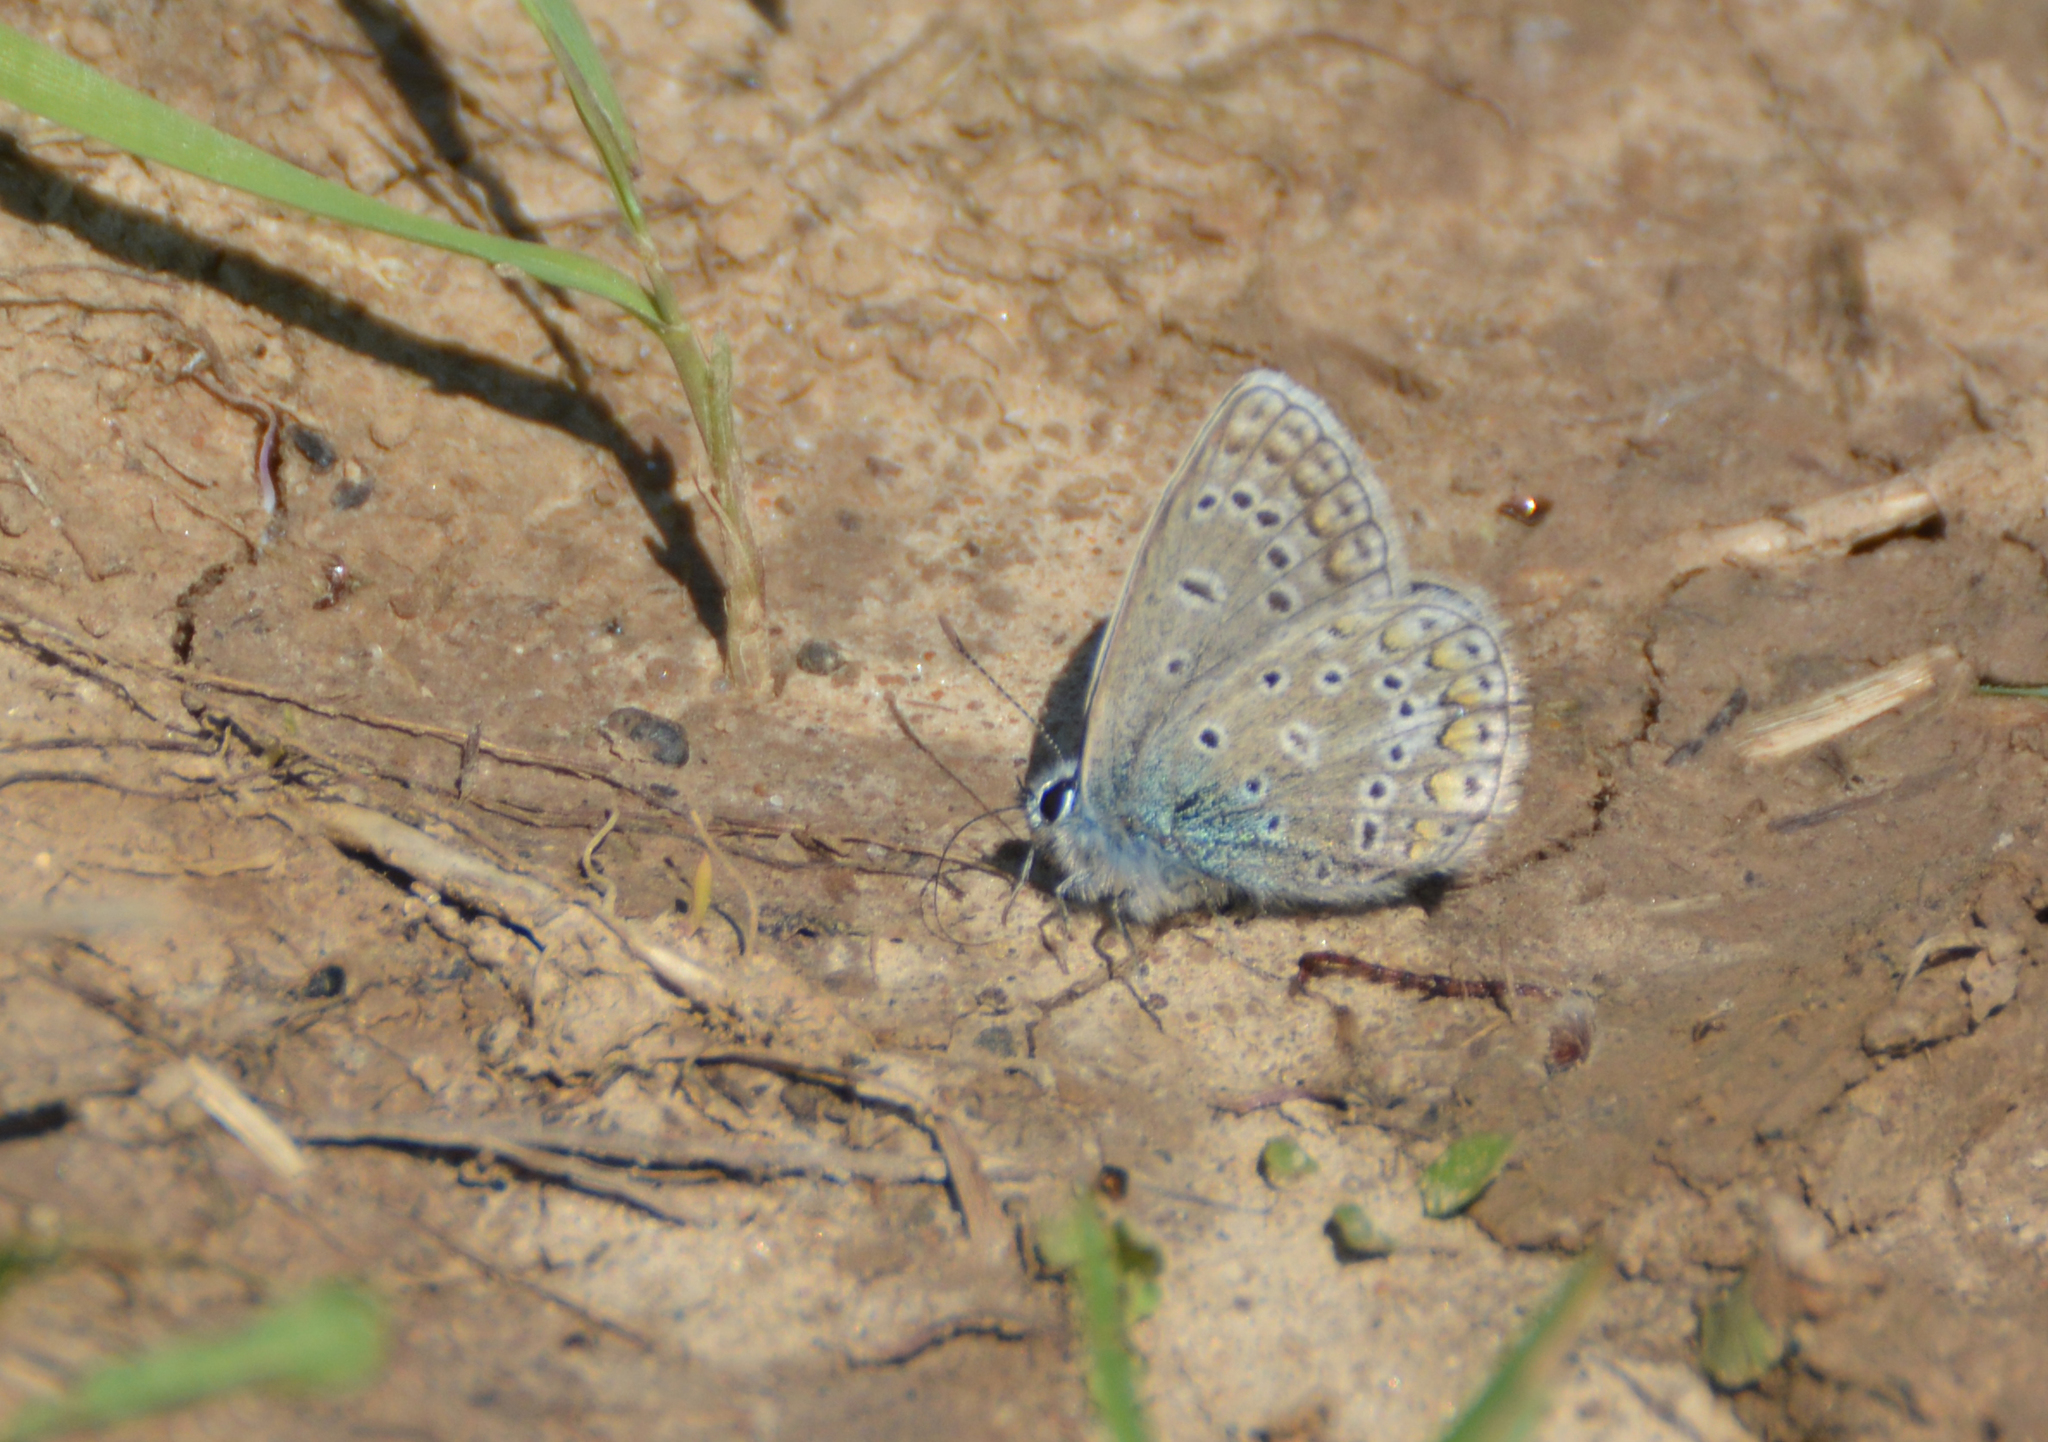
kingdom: Animalia
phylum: Arthropoda
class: Insecta
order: Lepidoptera
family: Lycaenidae
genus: Polyommatus
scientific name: Polyommatus icarus
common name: Common blue
